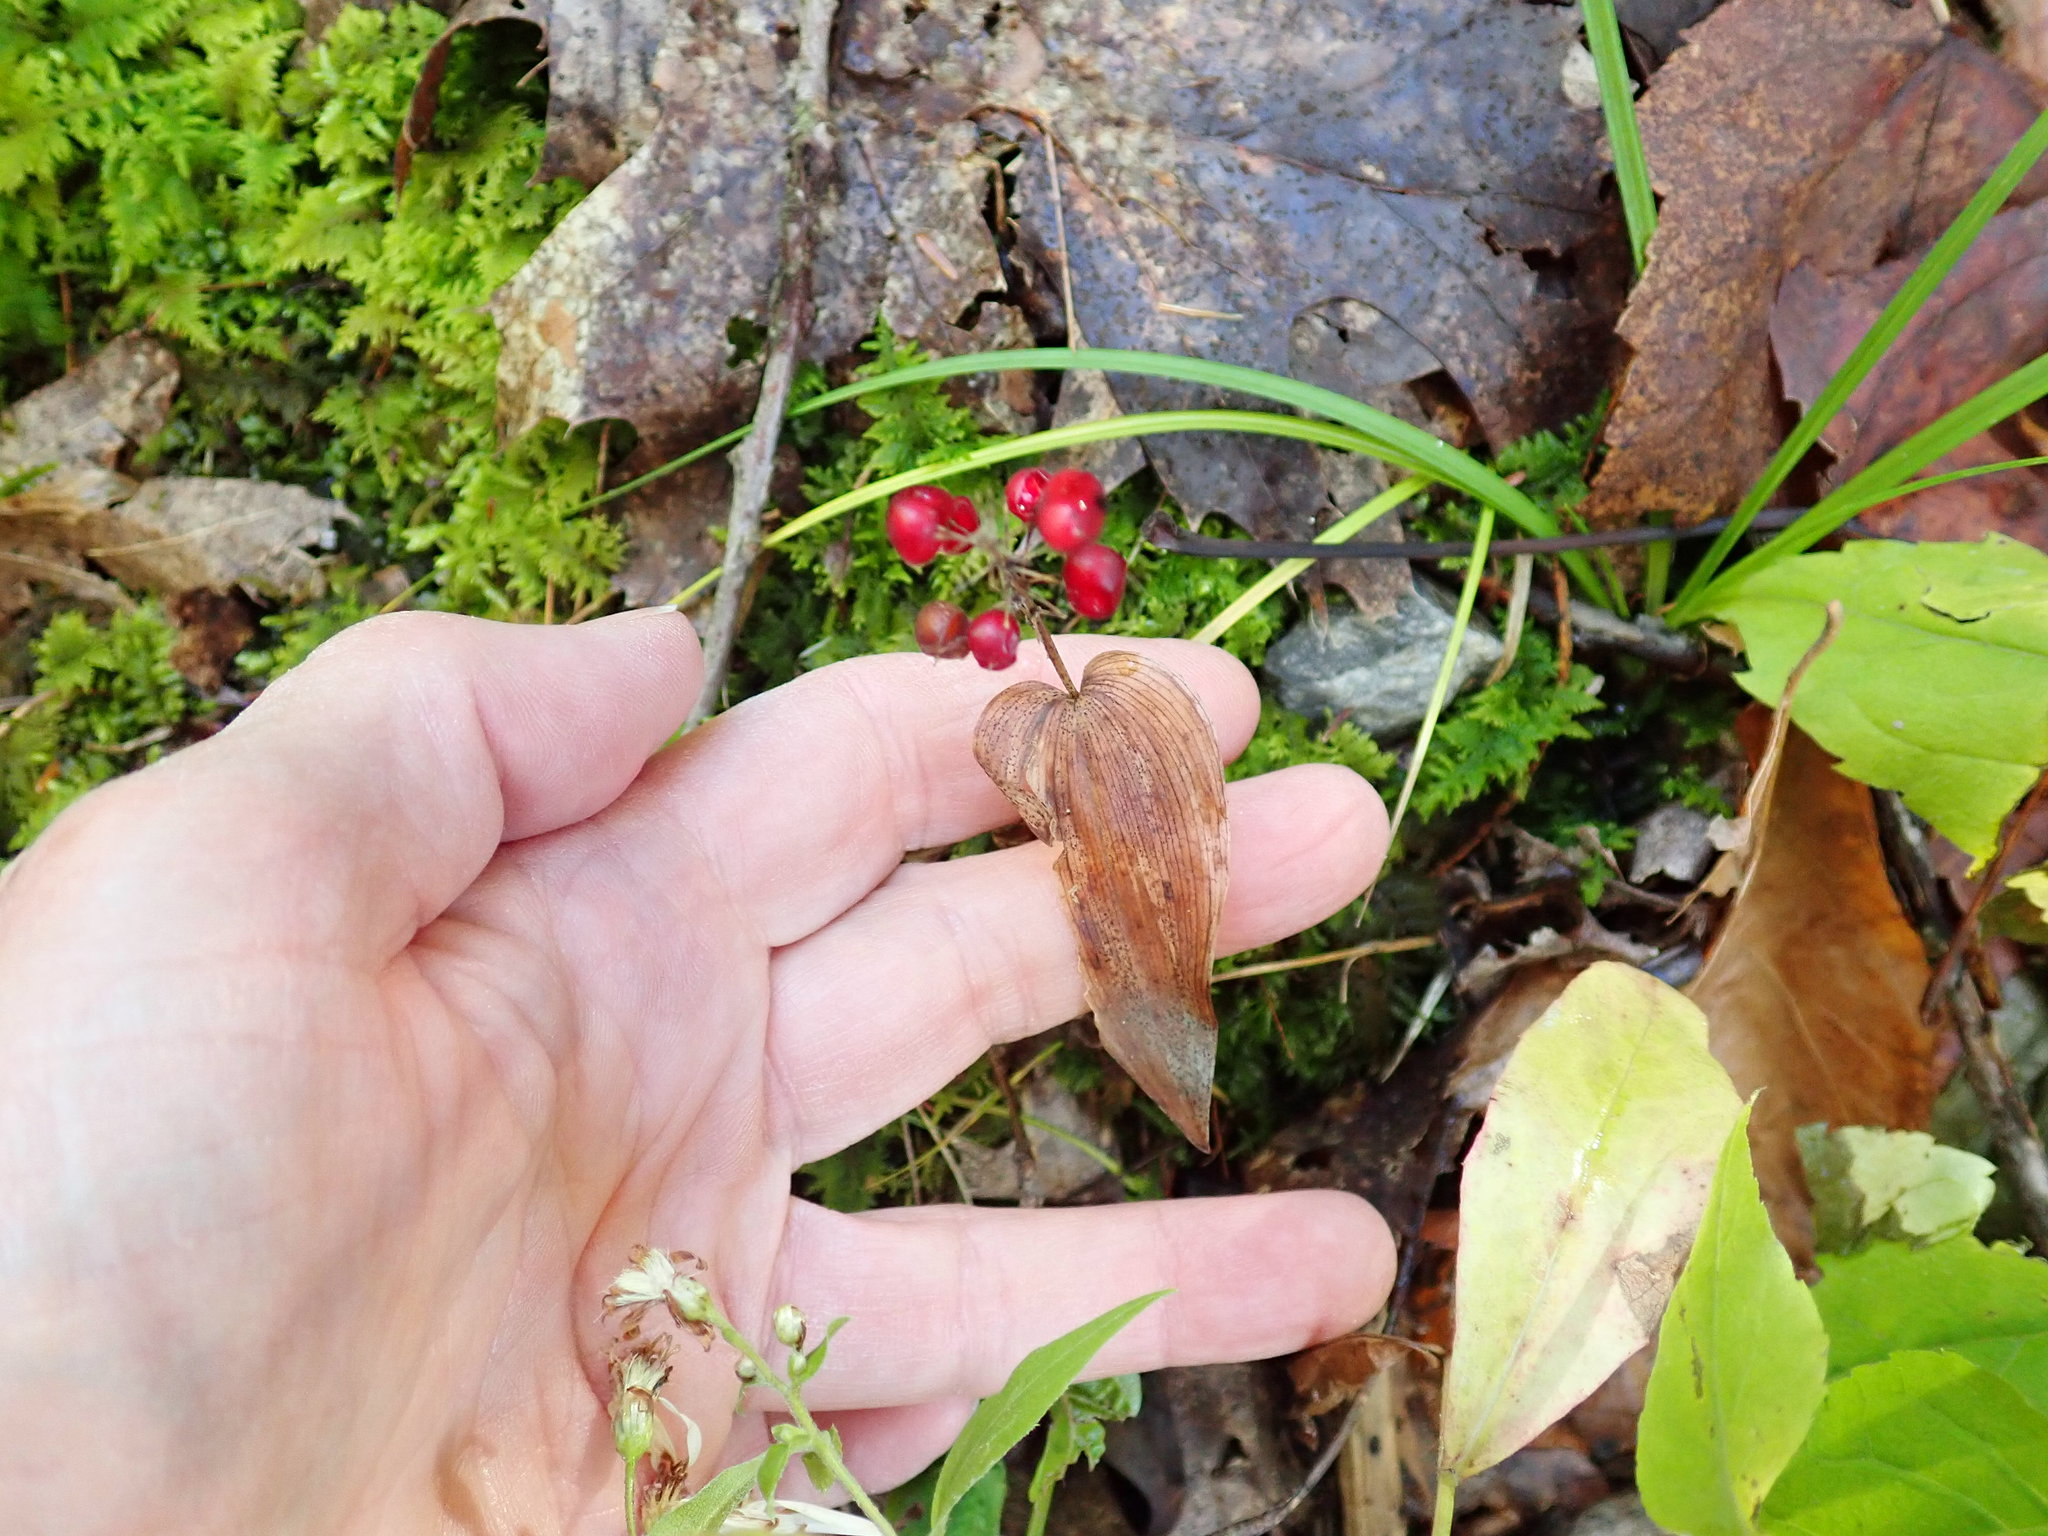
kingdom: Plantae
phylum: Tracheophyta
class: Liliopsida
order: Asparagales
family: Asparagaceae
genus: Maianthemum
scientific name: Maianthemum canadense
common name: False lily-of-the-valley
